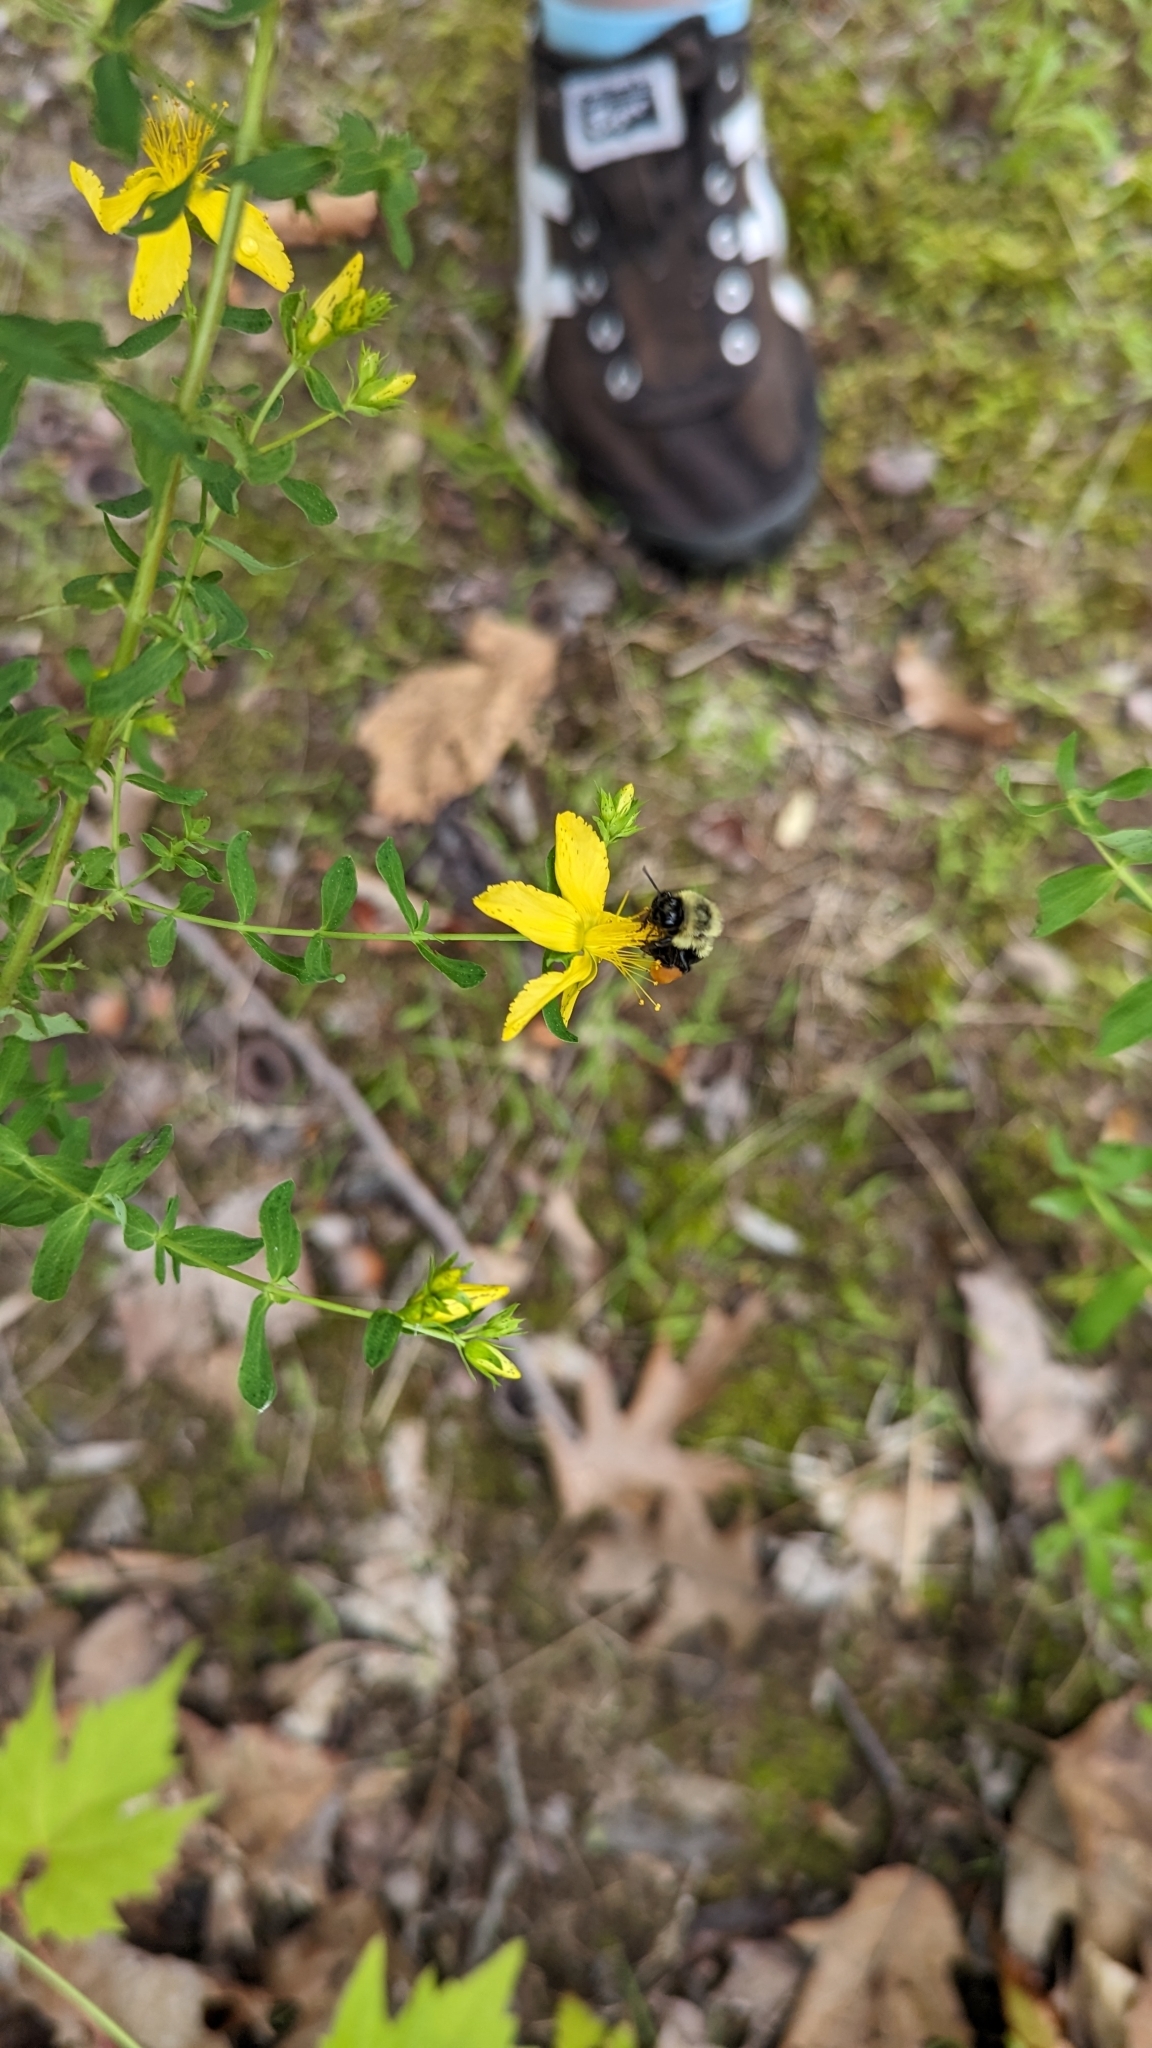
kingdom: Animalia
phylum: Arthropoda
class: Insecta
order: Hymenoptera
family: Apidae
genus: Bombus
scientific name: Bombus impatiens
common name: Common eastern bumble bee
